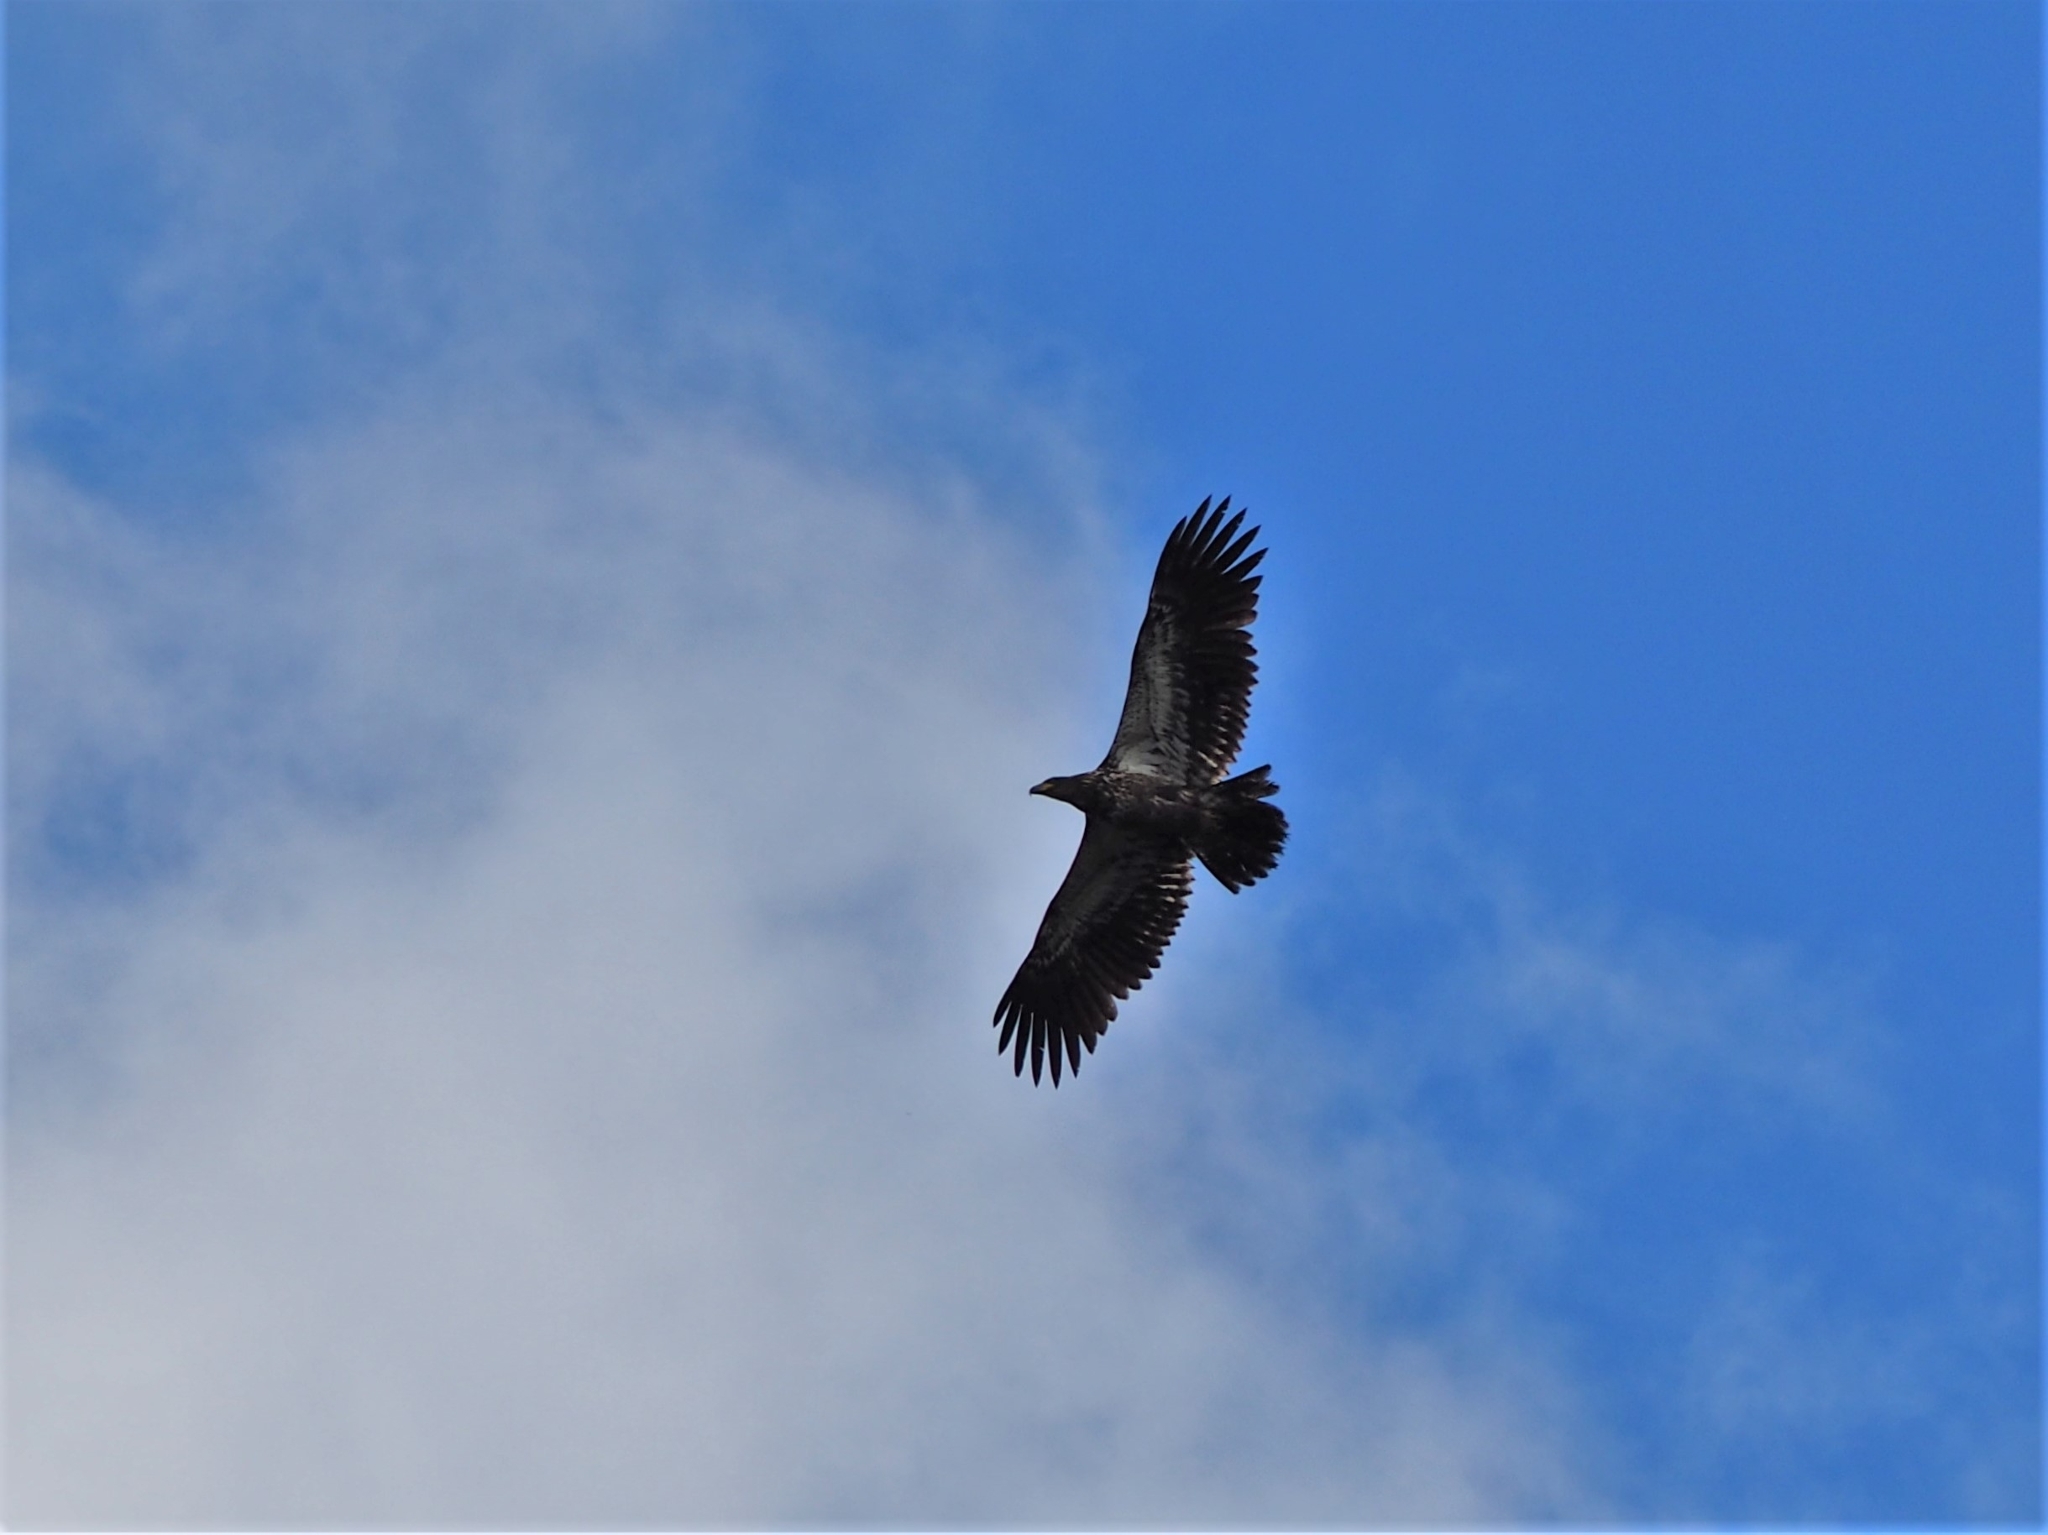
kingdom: Animalia
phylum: Chordata
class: Aves
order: Accipitriformes
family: Accipitridae
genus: Haliaeetus
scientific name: Haliaeetus leucocephalus
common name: Bald eagle
